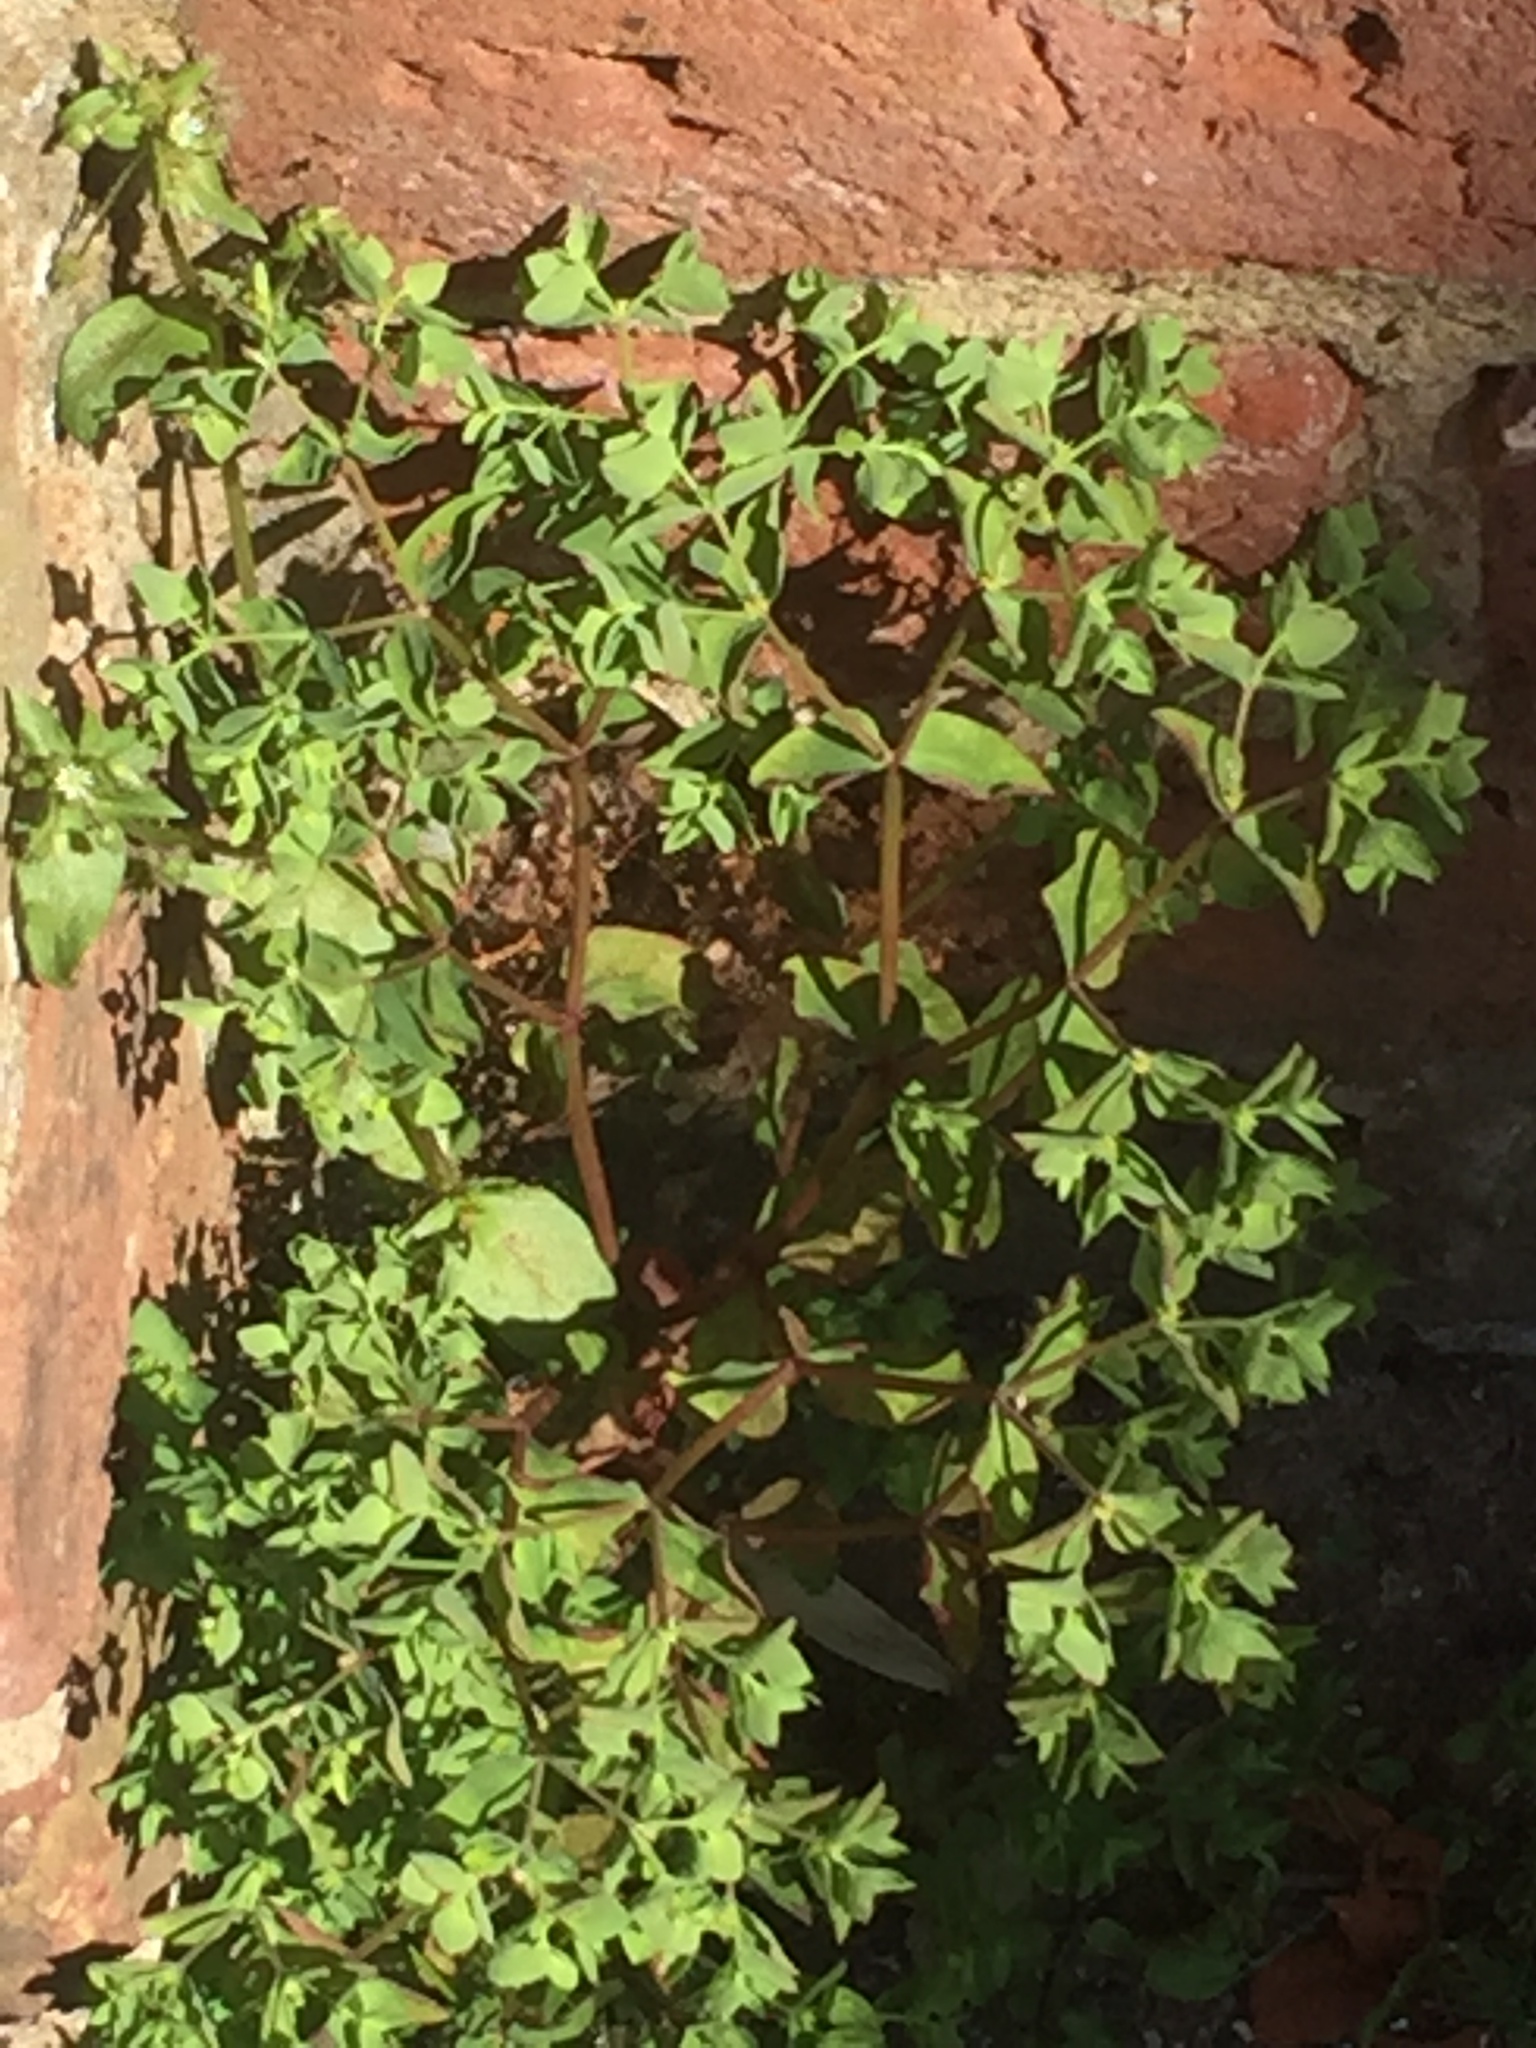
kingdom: Plantae
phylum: Tracheophyta
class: Magnoliopsida
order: Malpighiales
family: Euphorbiaceae
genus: Euphorbia
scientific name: Euphorbia peplus
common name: Petty spurge
